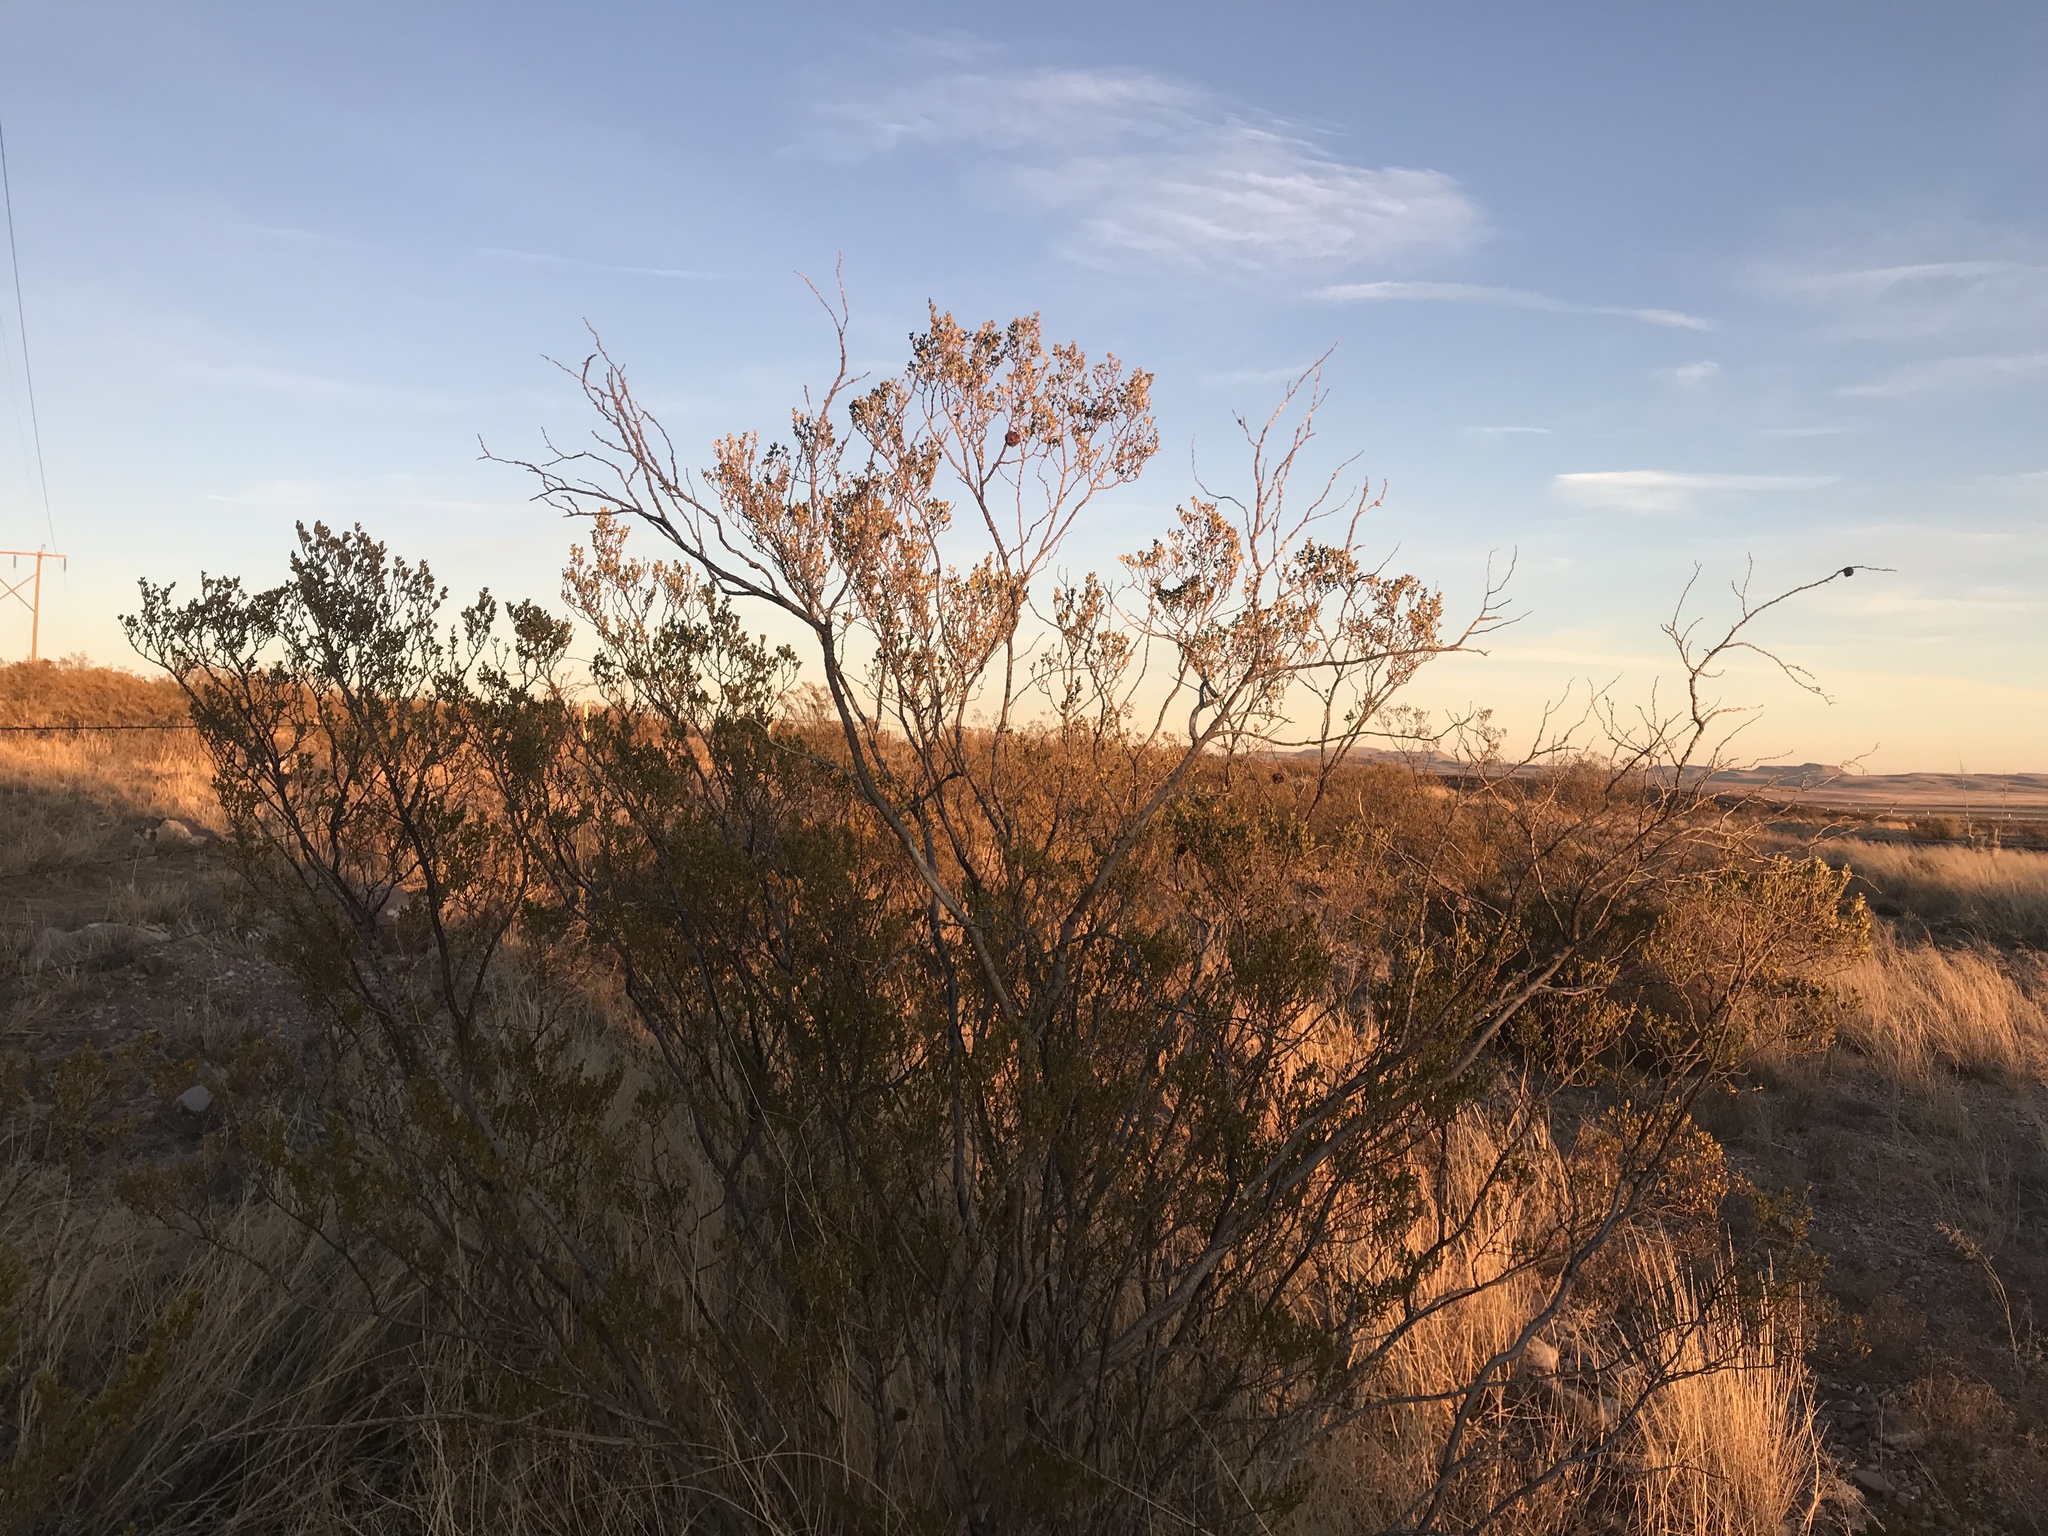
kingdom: Plantae
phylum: Tracheophyta
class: Magnoliopsida
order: Zygophyllales
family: Zygophyllaceae
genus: Larrea
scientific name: Larrea tridentata
